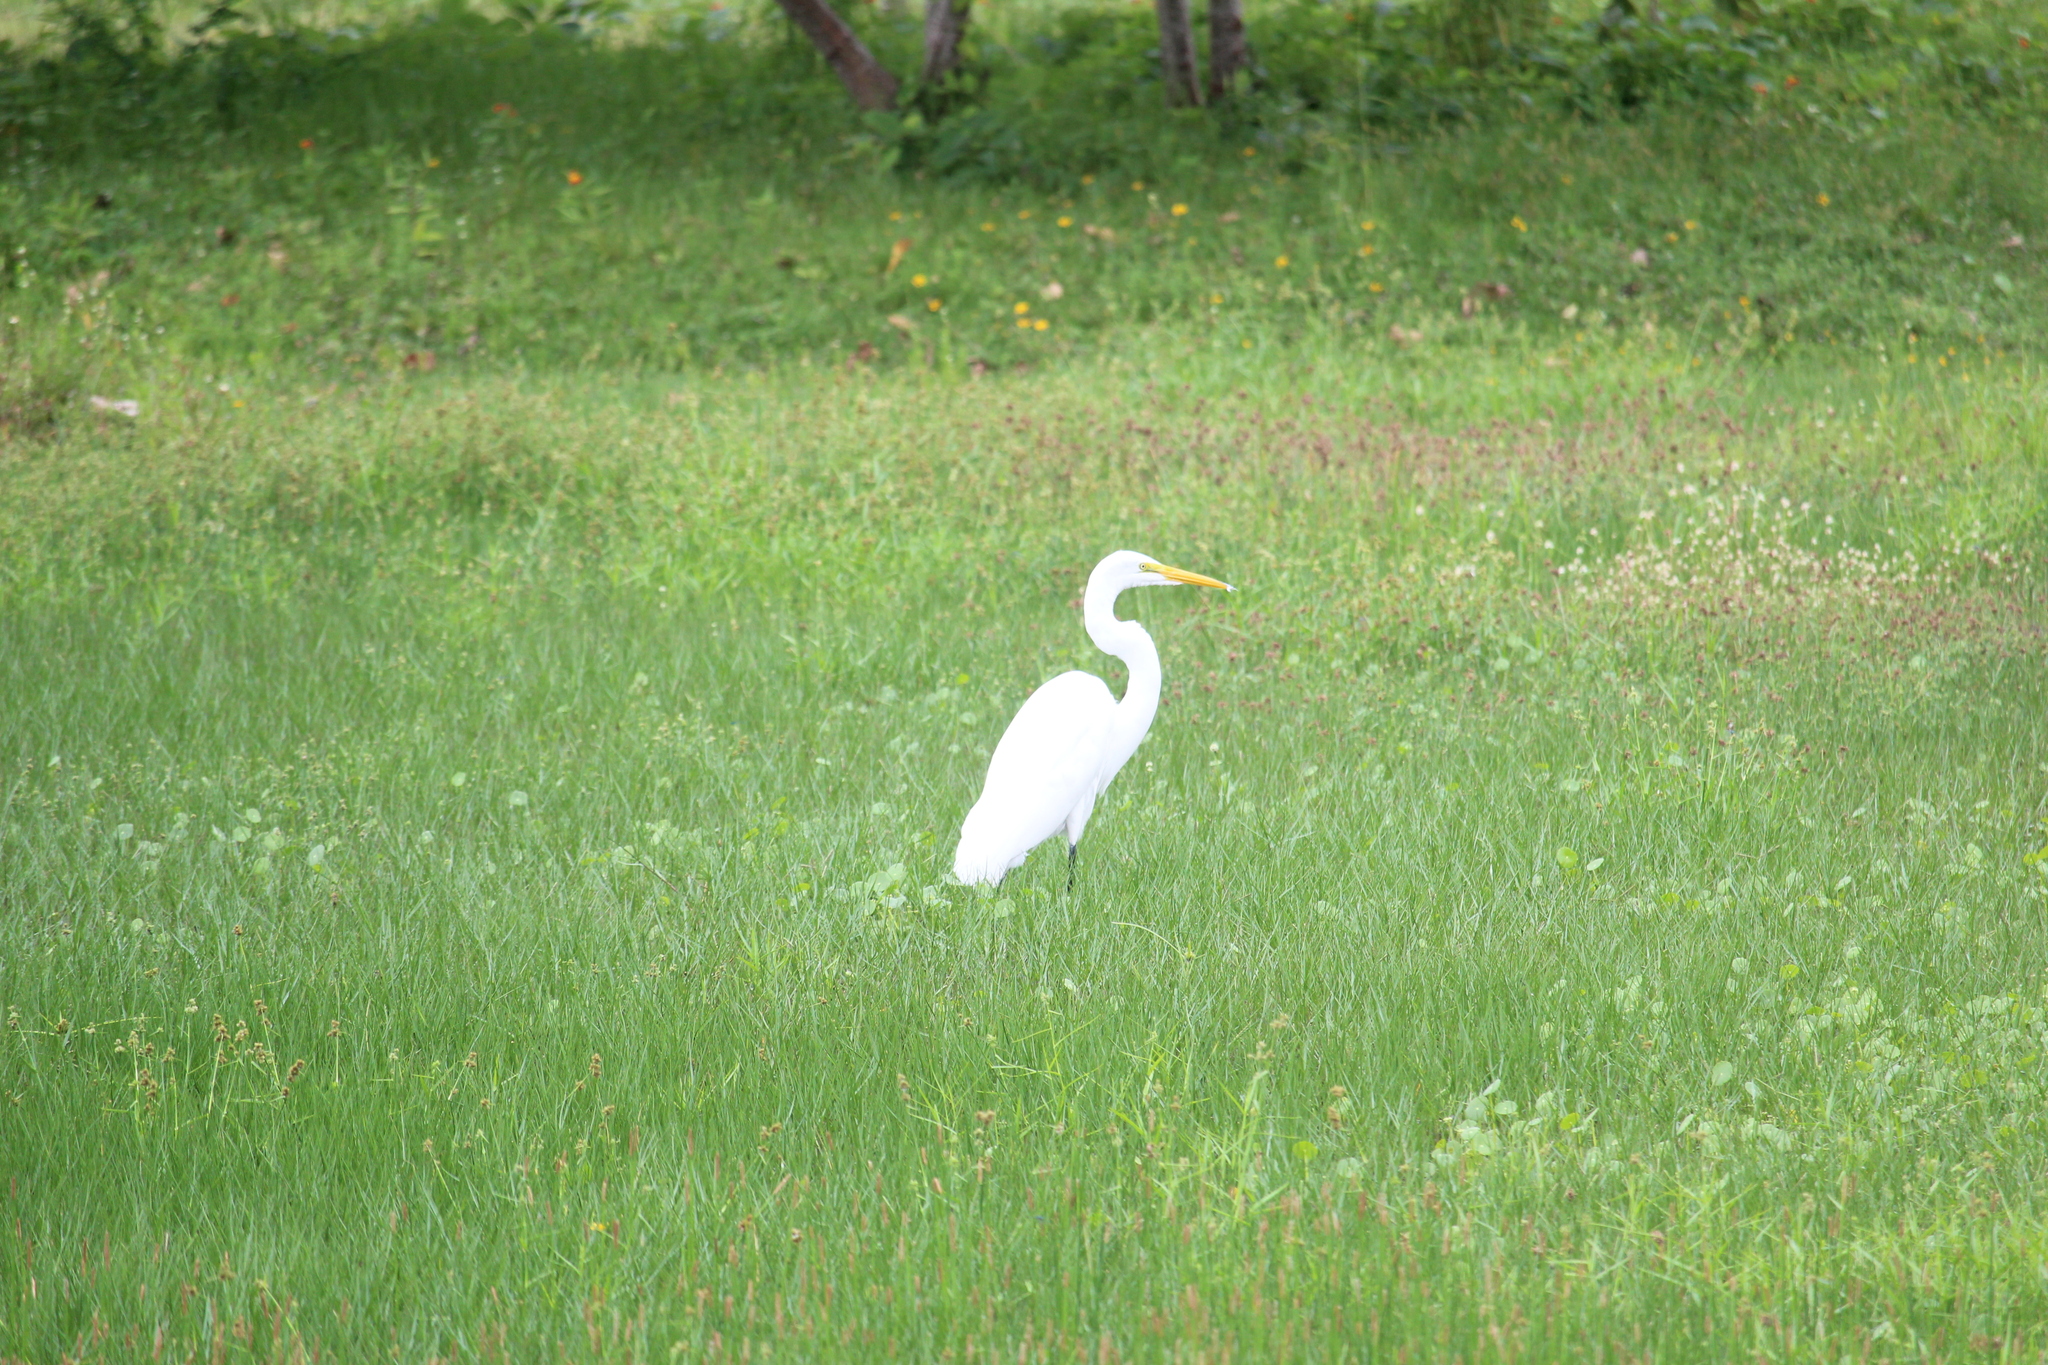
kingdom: Animalia
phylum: Chordata
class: Aves
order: Pelecaniformes
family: Ardeidae
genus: Ardea
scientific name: Ardea alba
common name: Great egret
